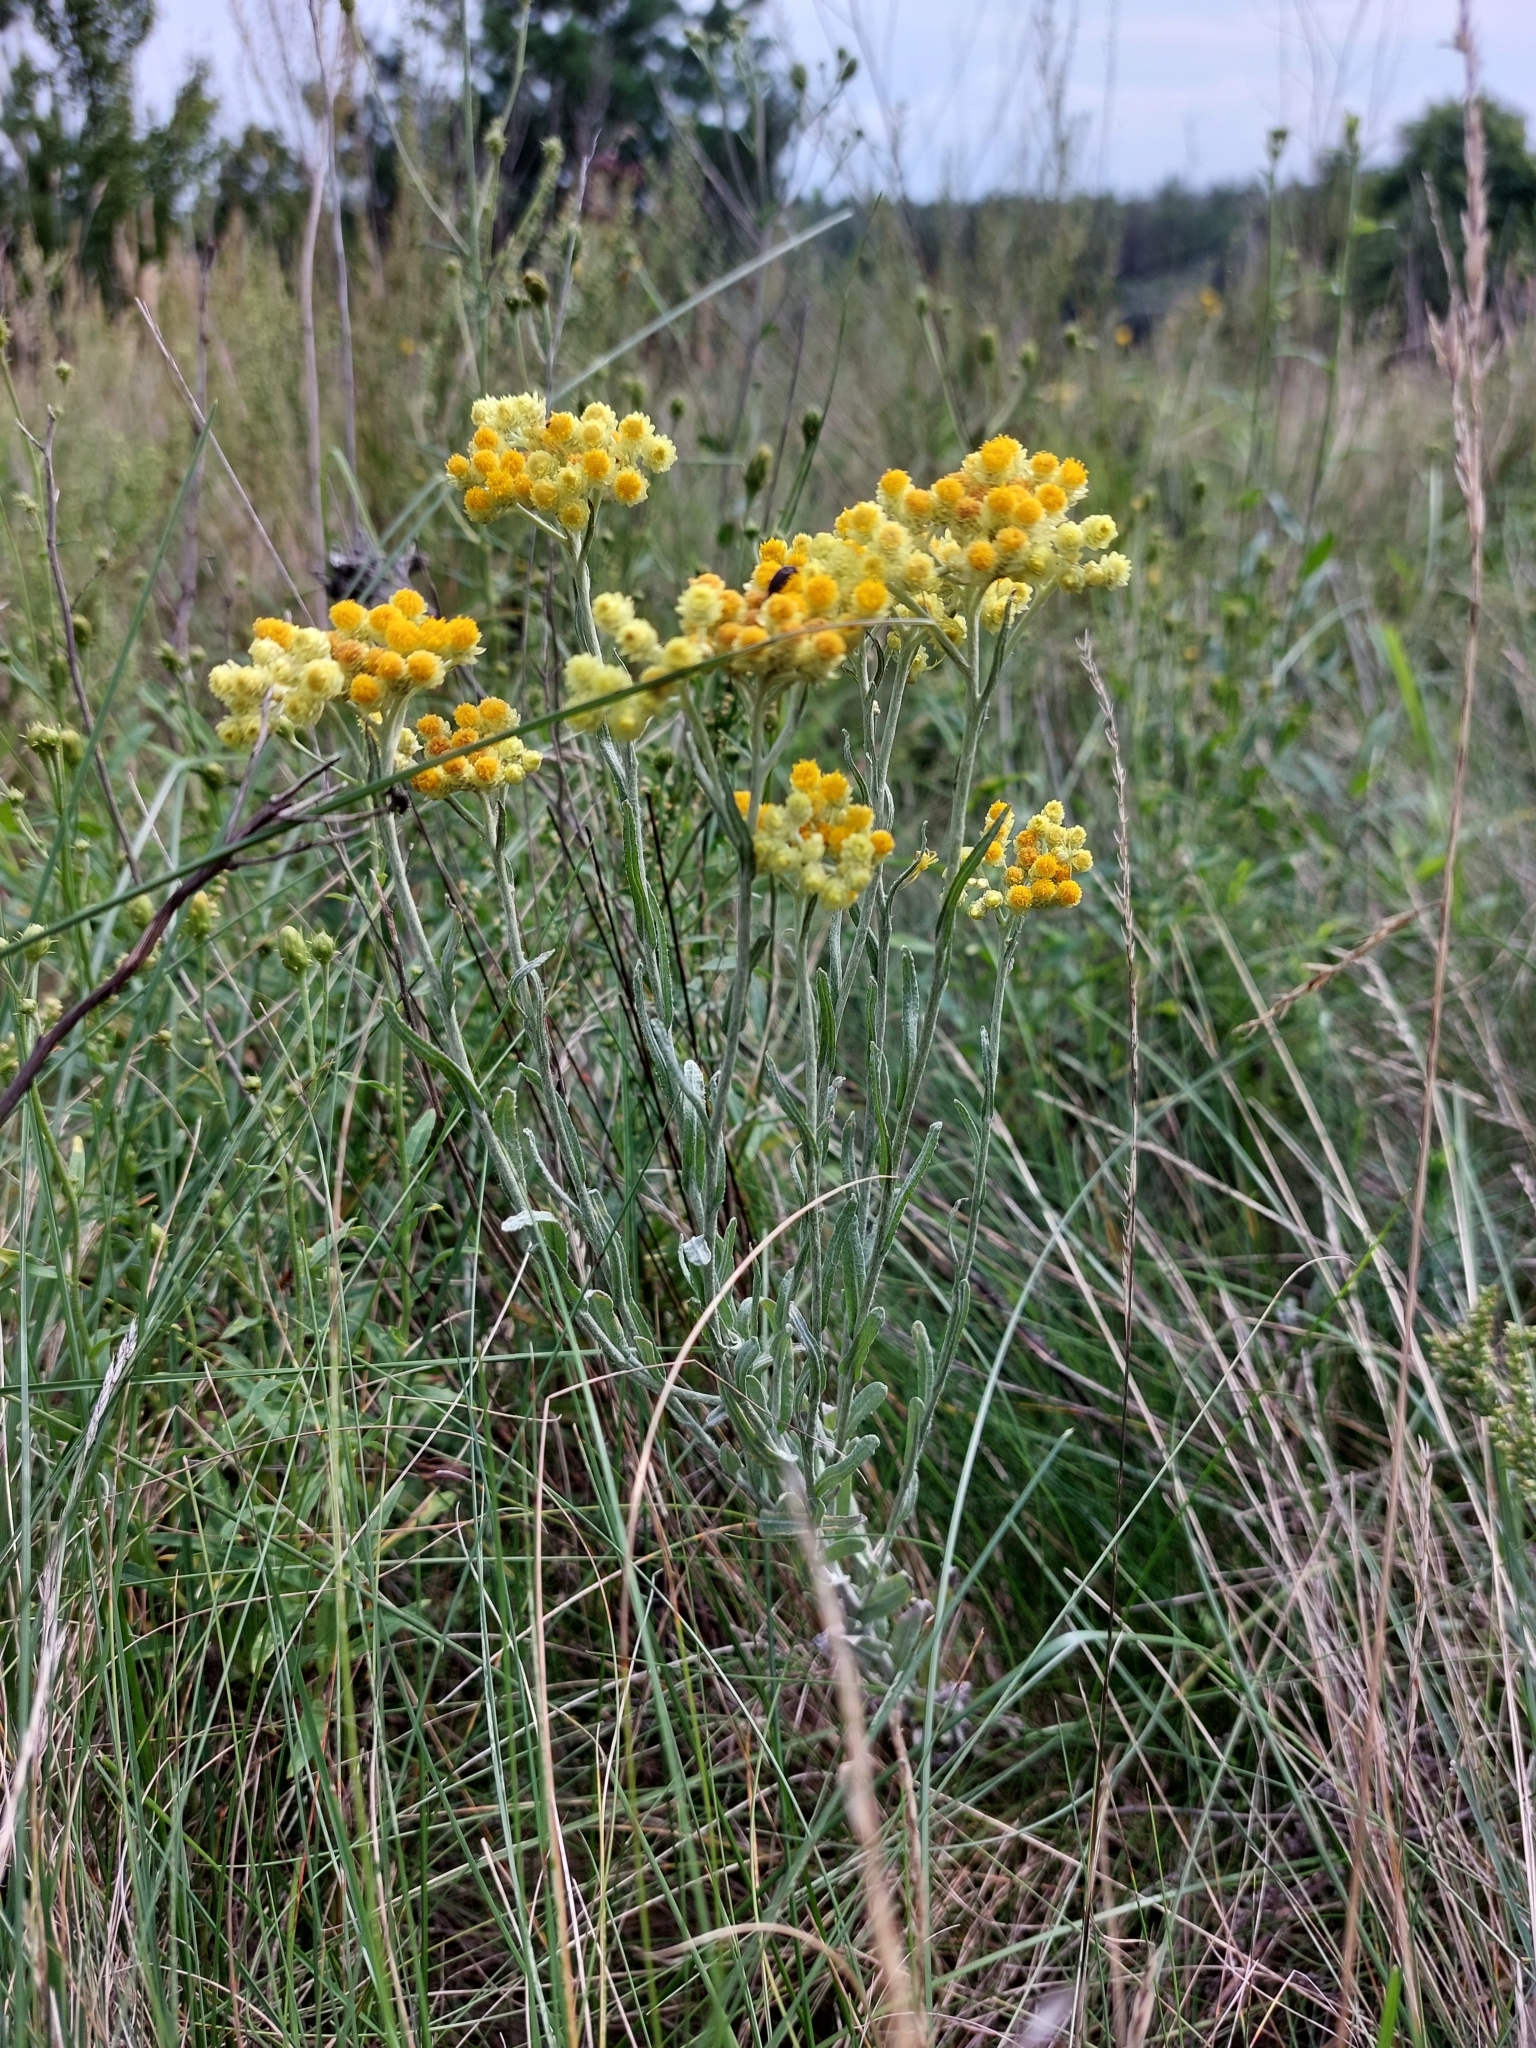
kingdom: Plantae
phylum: Tracheophyta
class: Magnoliopsida
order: Asterales
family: Asteraceae
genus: Helichrysum
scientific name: Helichrysum arenarium
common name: Strawflower
